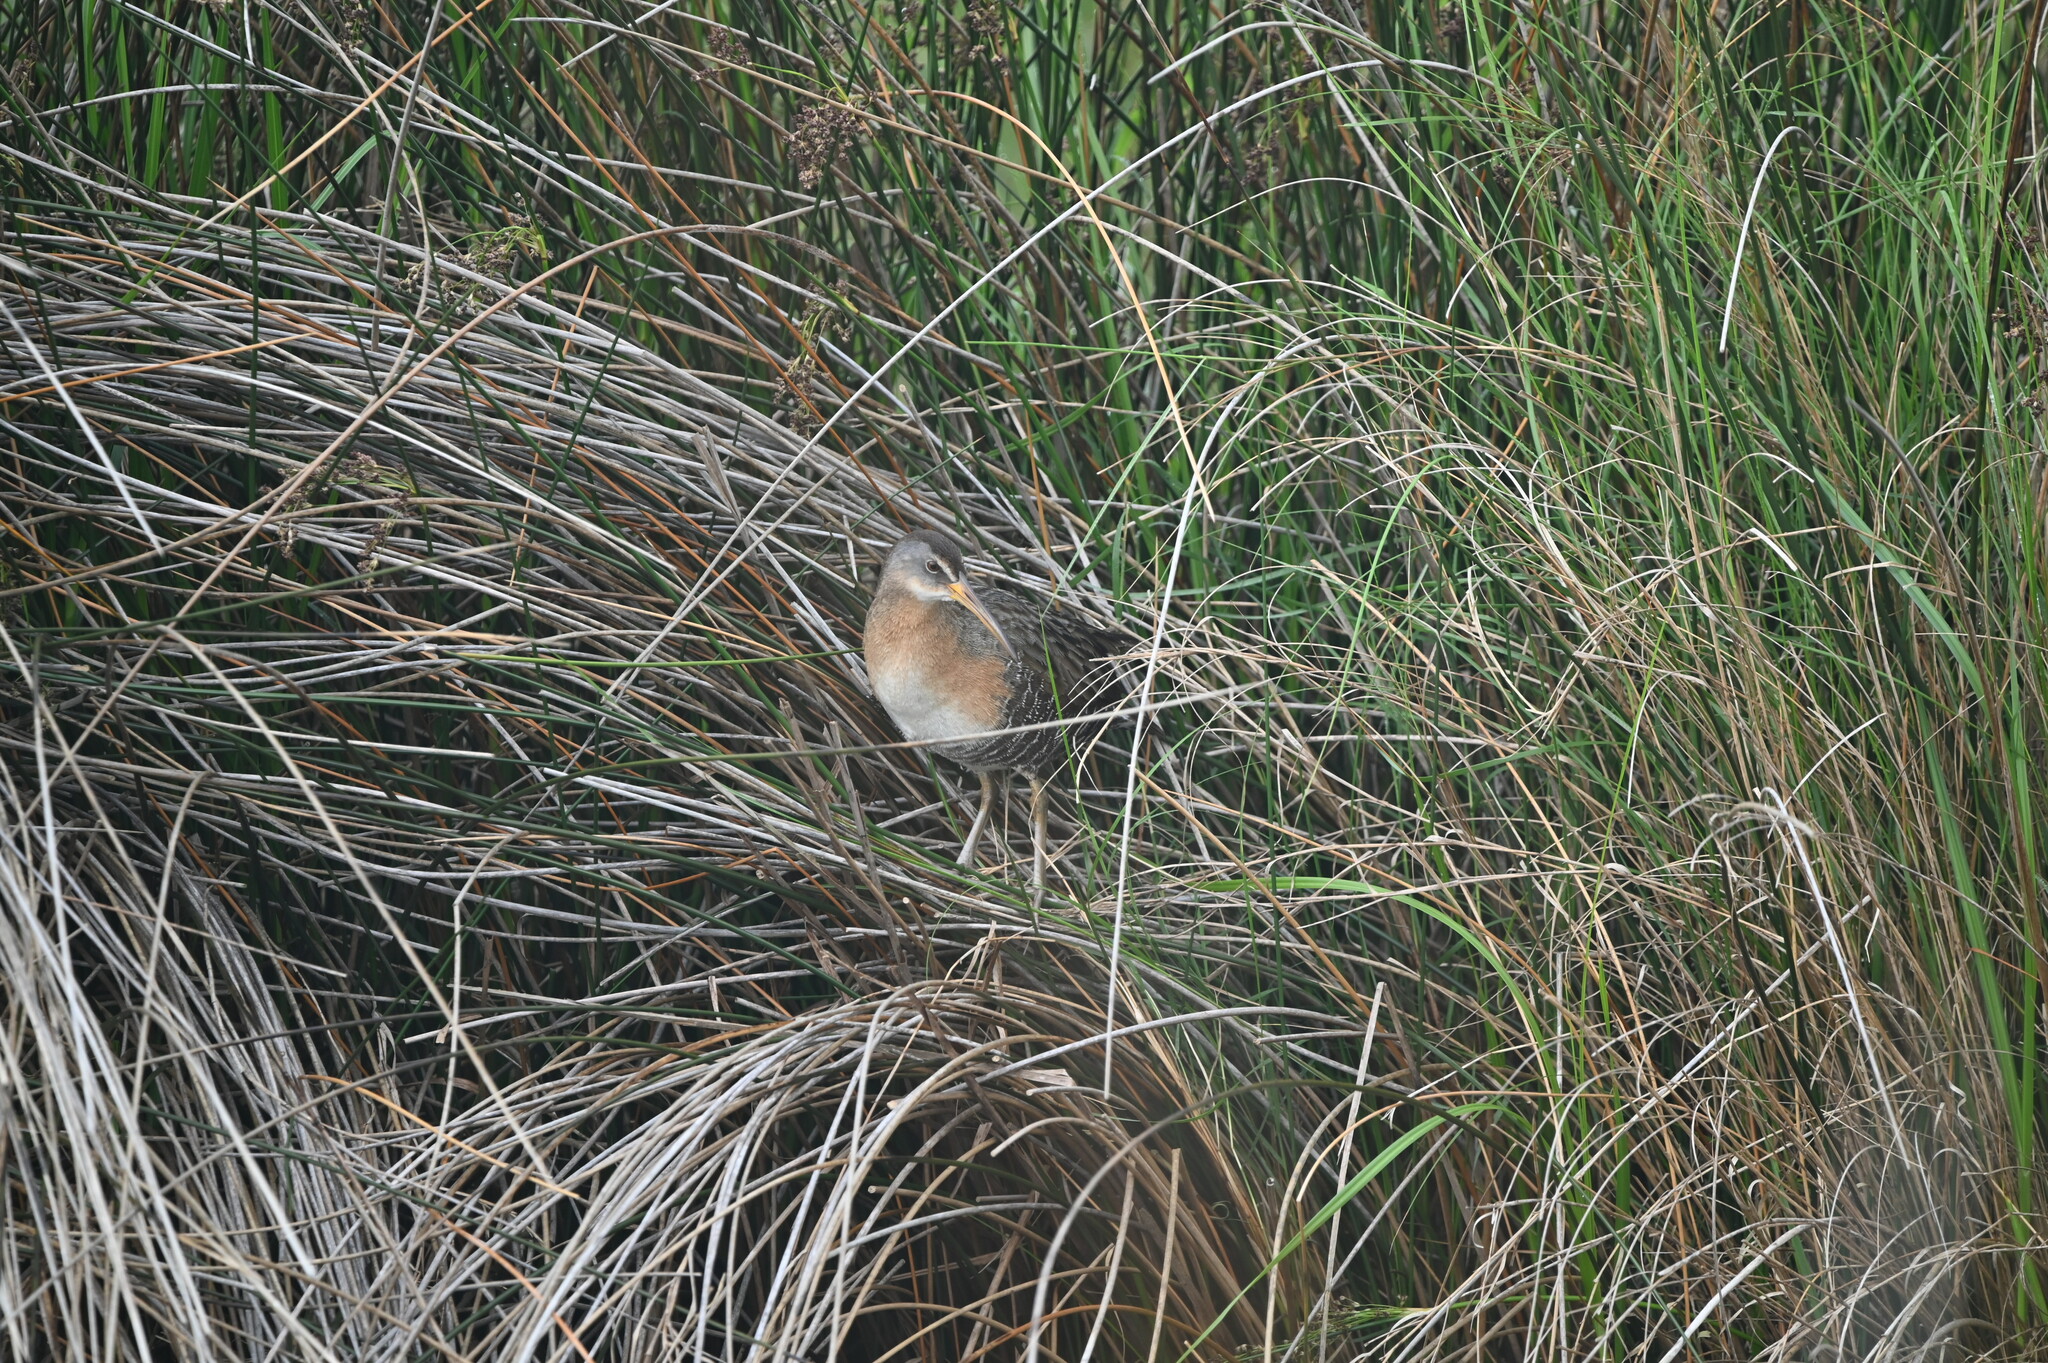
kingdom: Animalia
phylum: Chordata
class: Aves
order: Gruiformes
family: Rallidae
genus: Rallus
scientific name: Rallus crepitans
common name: Clapper rail
